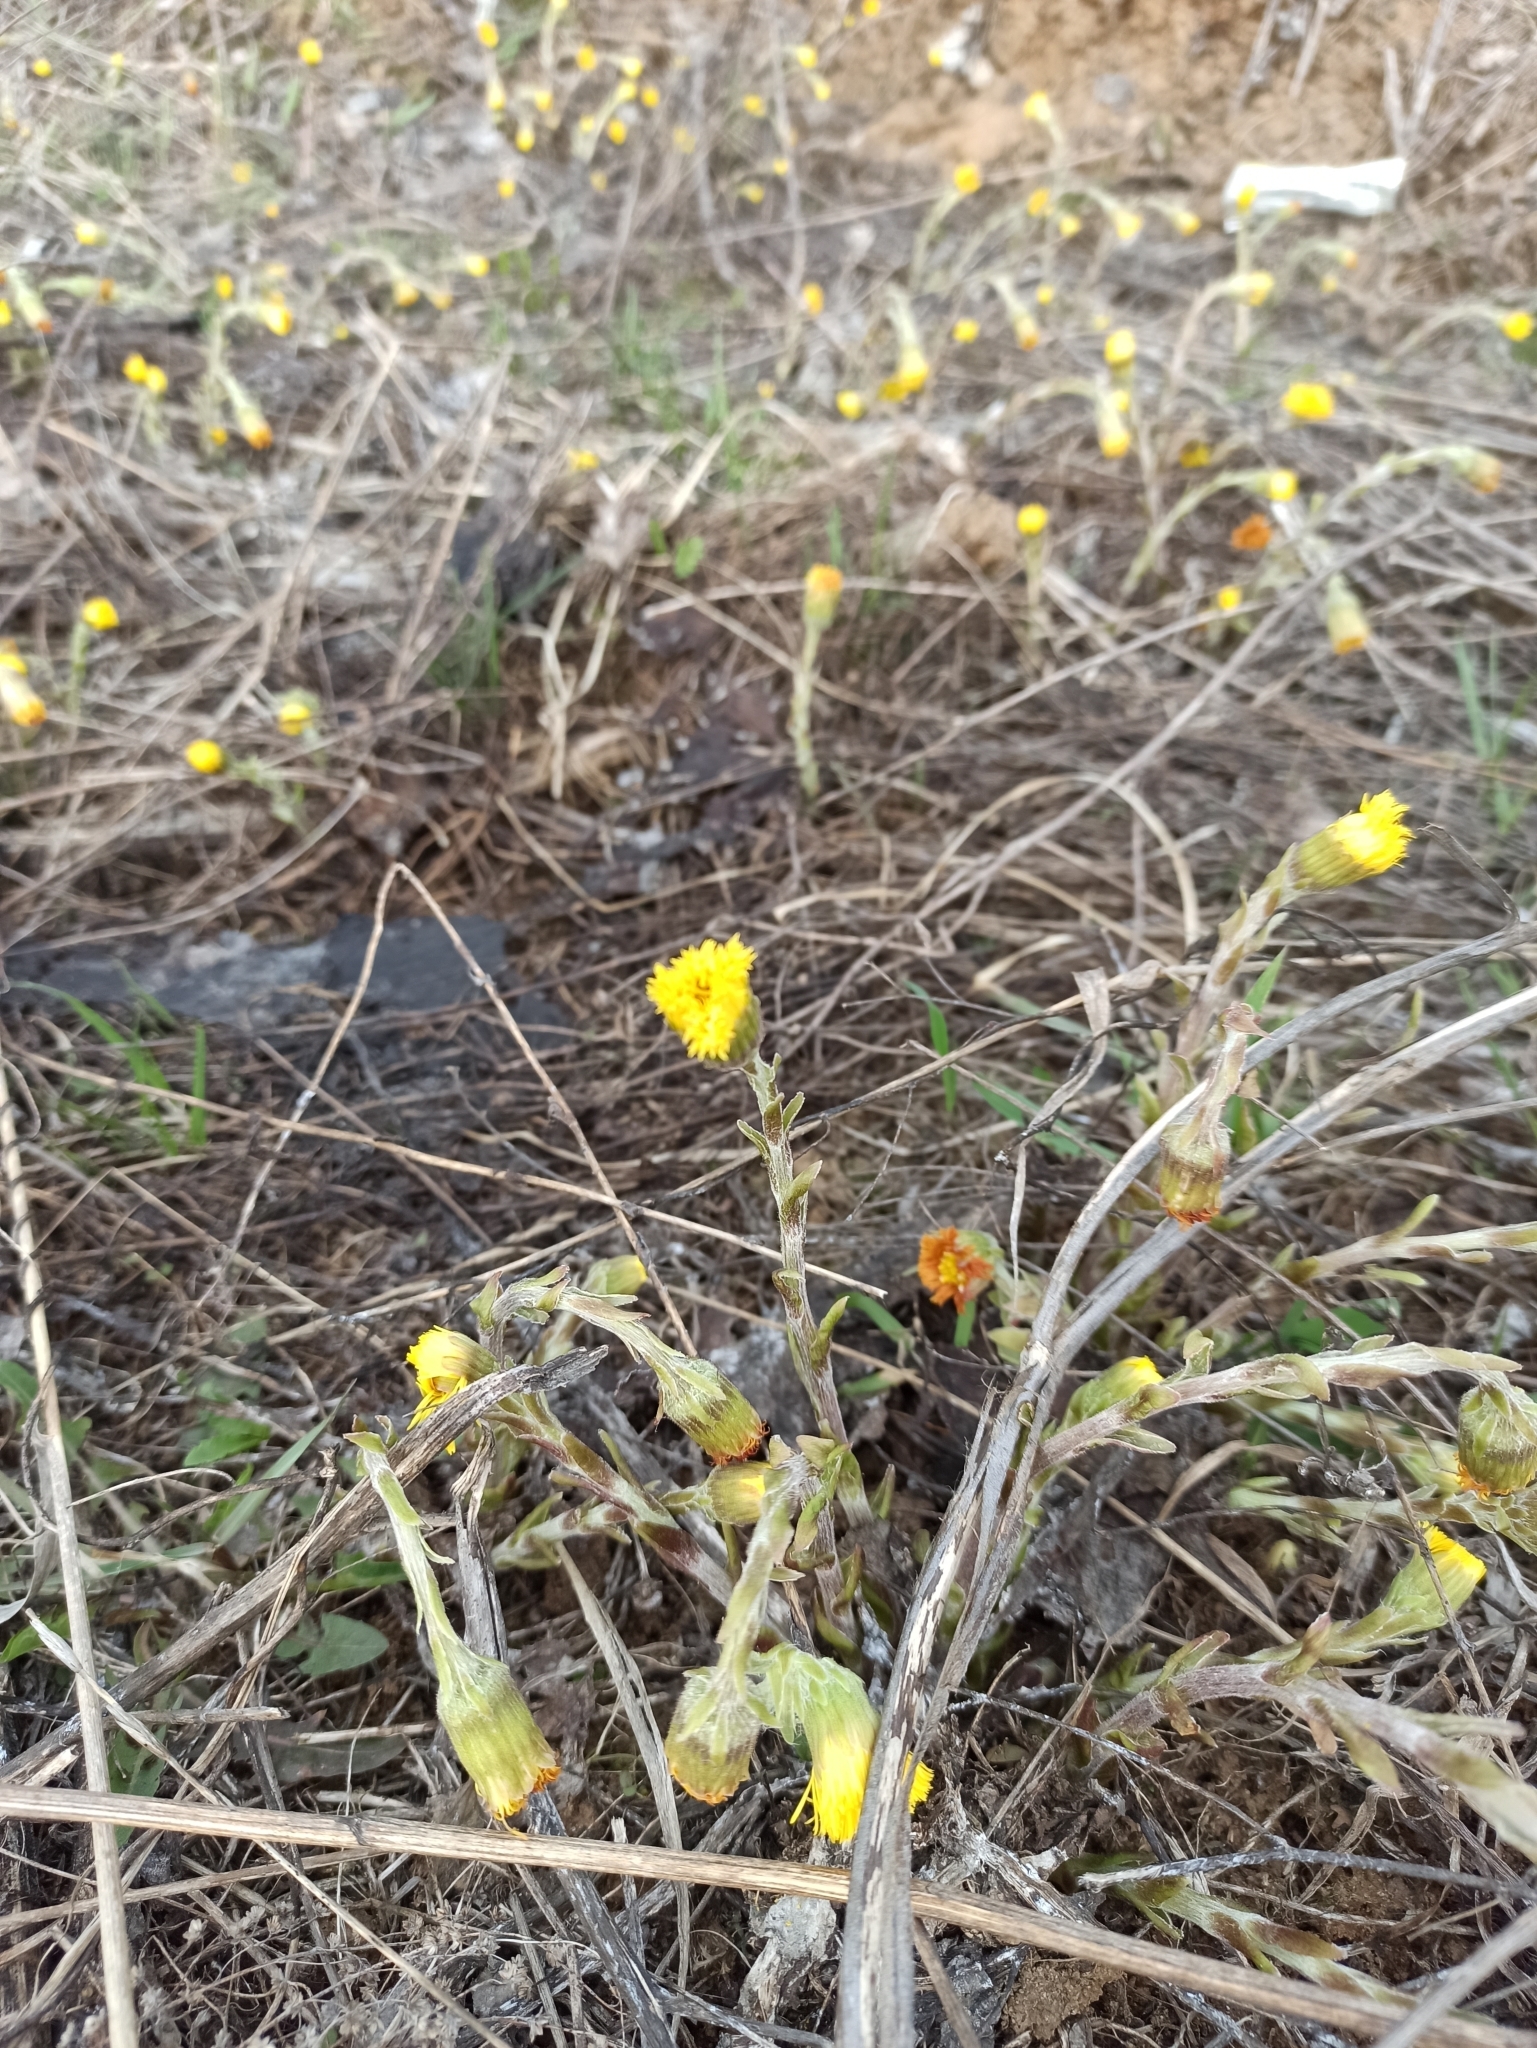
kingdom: Plantae
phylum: Tracheophyta
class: Magnoliopsida
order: Asterales
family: Asteraceae
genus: Tussilago
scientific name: Tussilago farfara
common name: Coltsfoot
